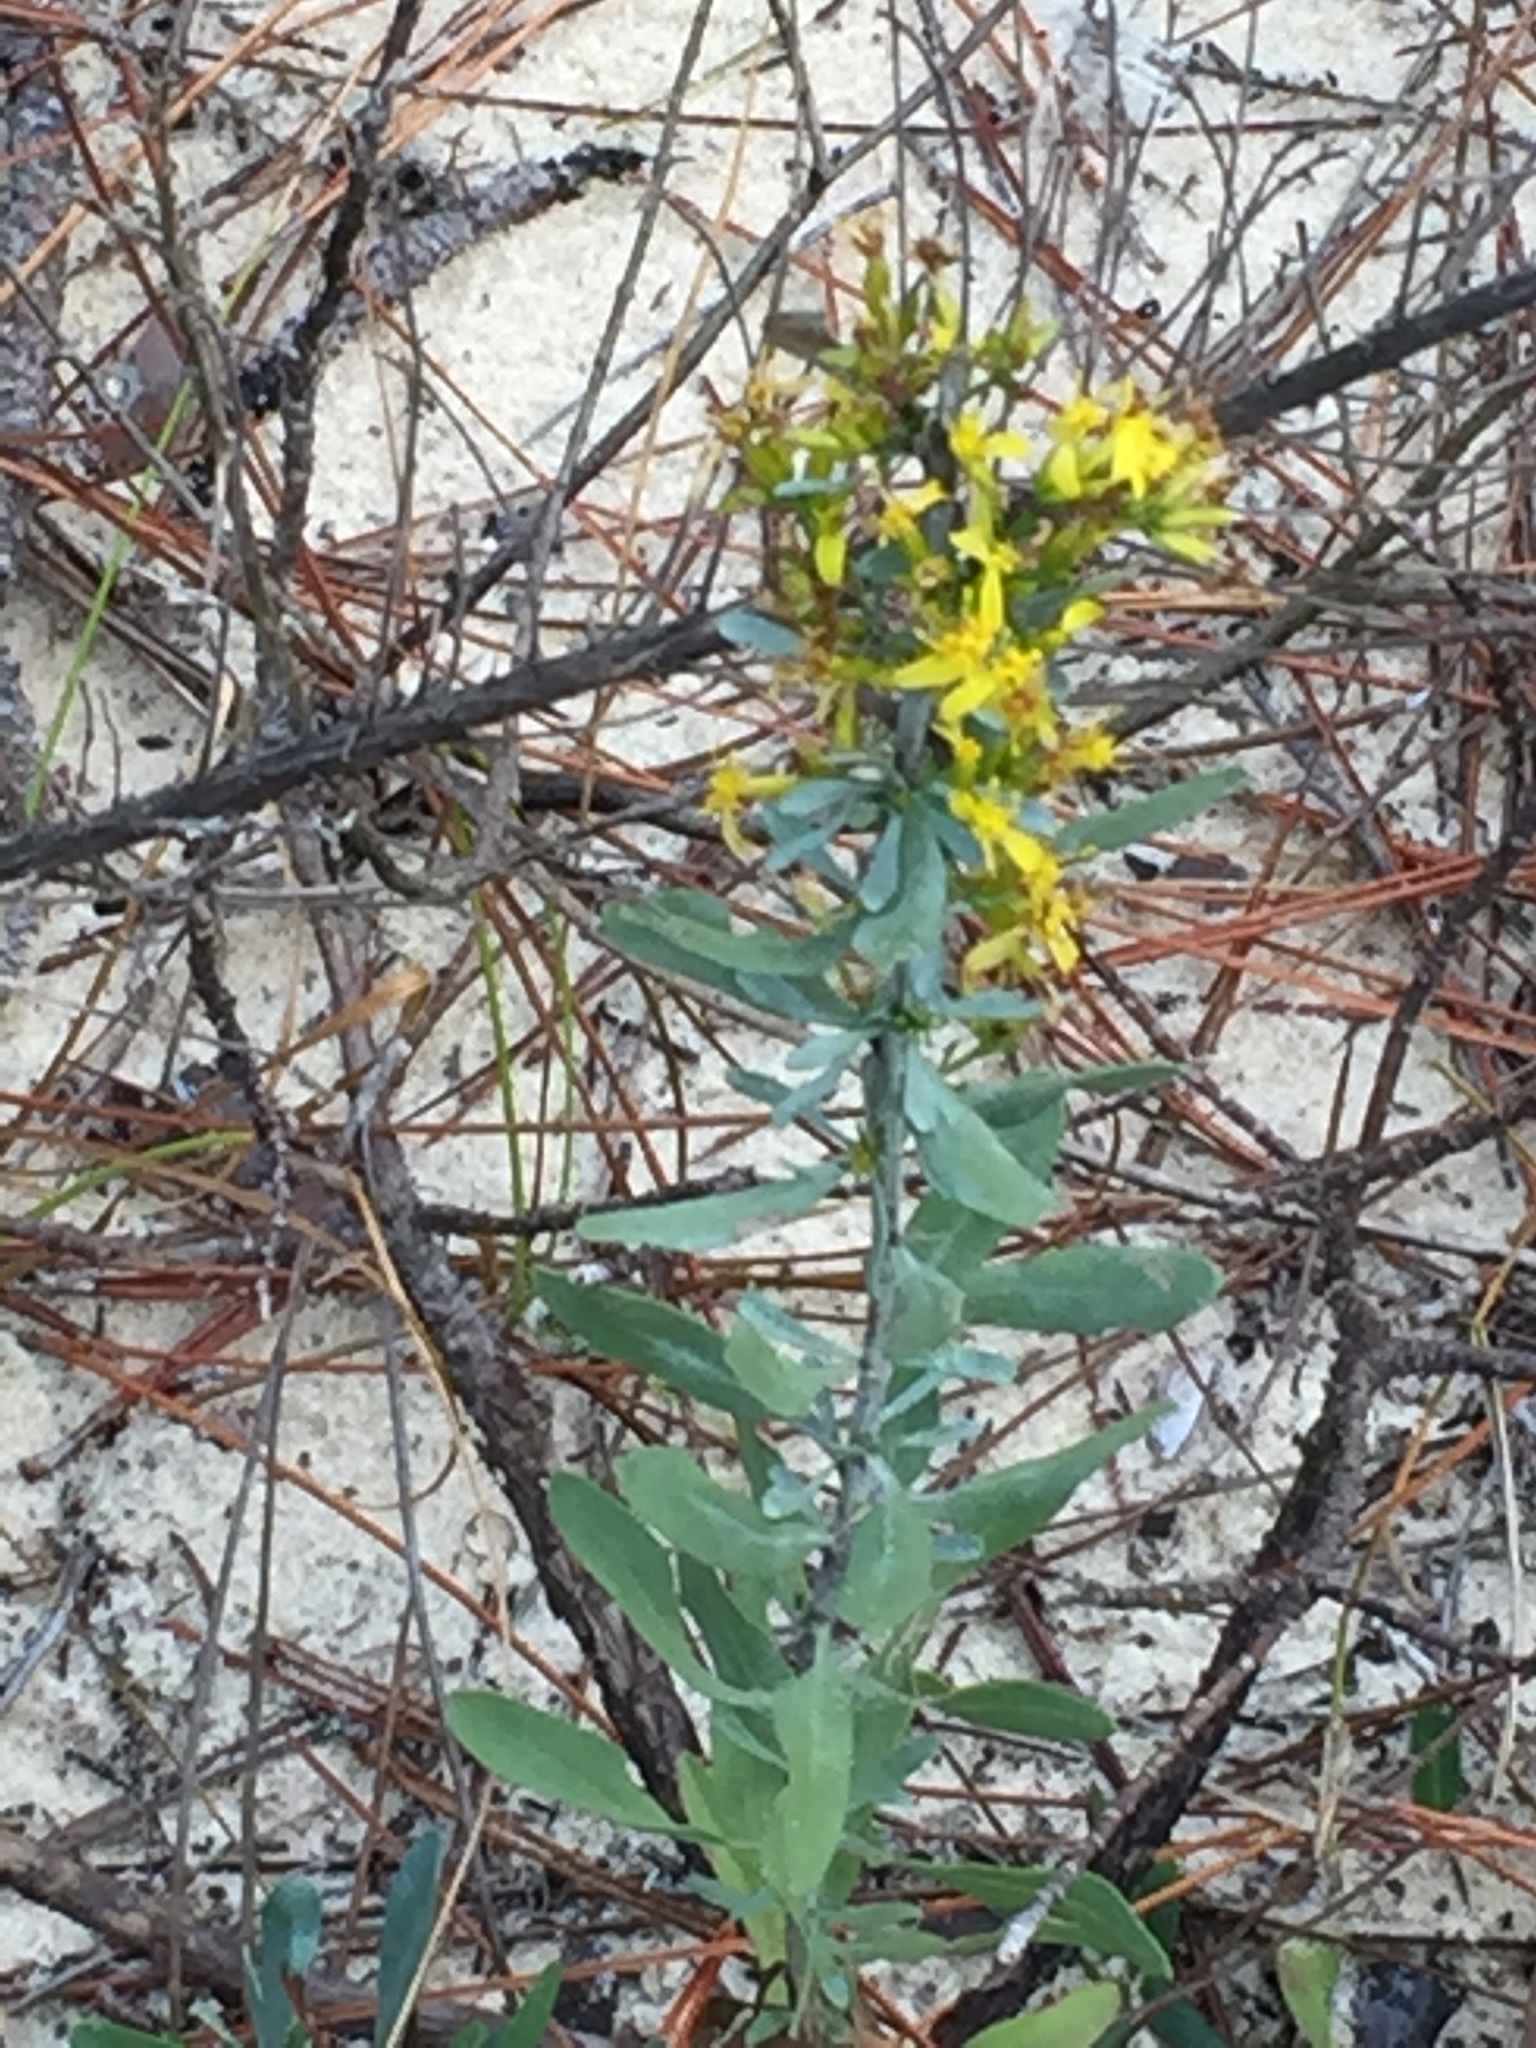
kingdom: Plantae
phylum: Tracheophyta
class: Magnoliopsida
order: Asterales
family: Asteraceae
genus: Chrysoma
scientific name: Chrysoma pauciflosculosa
